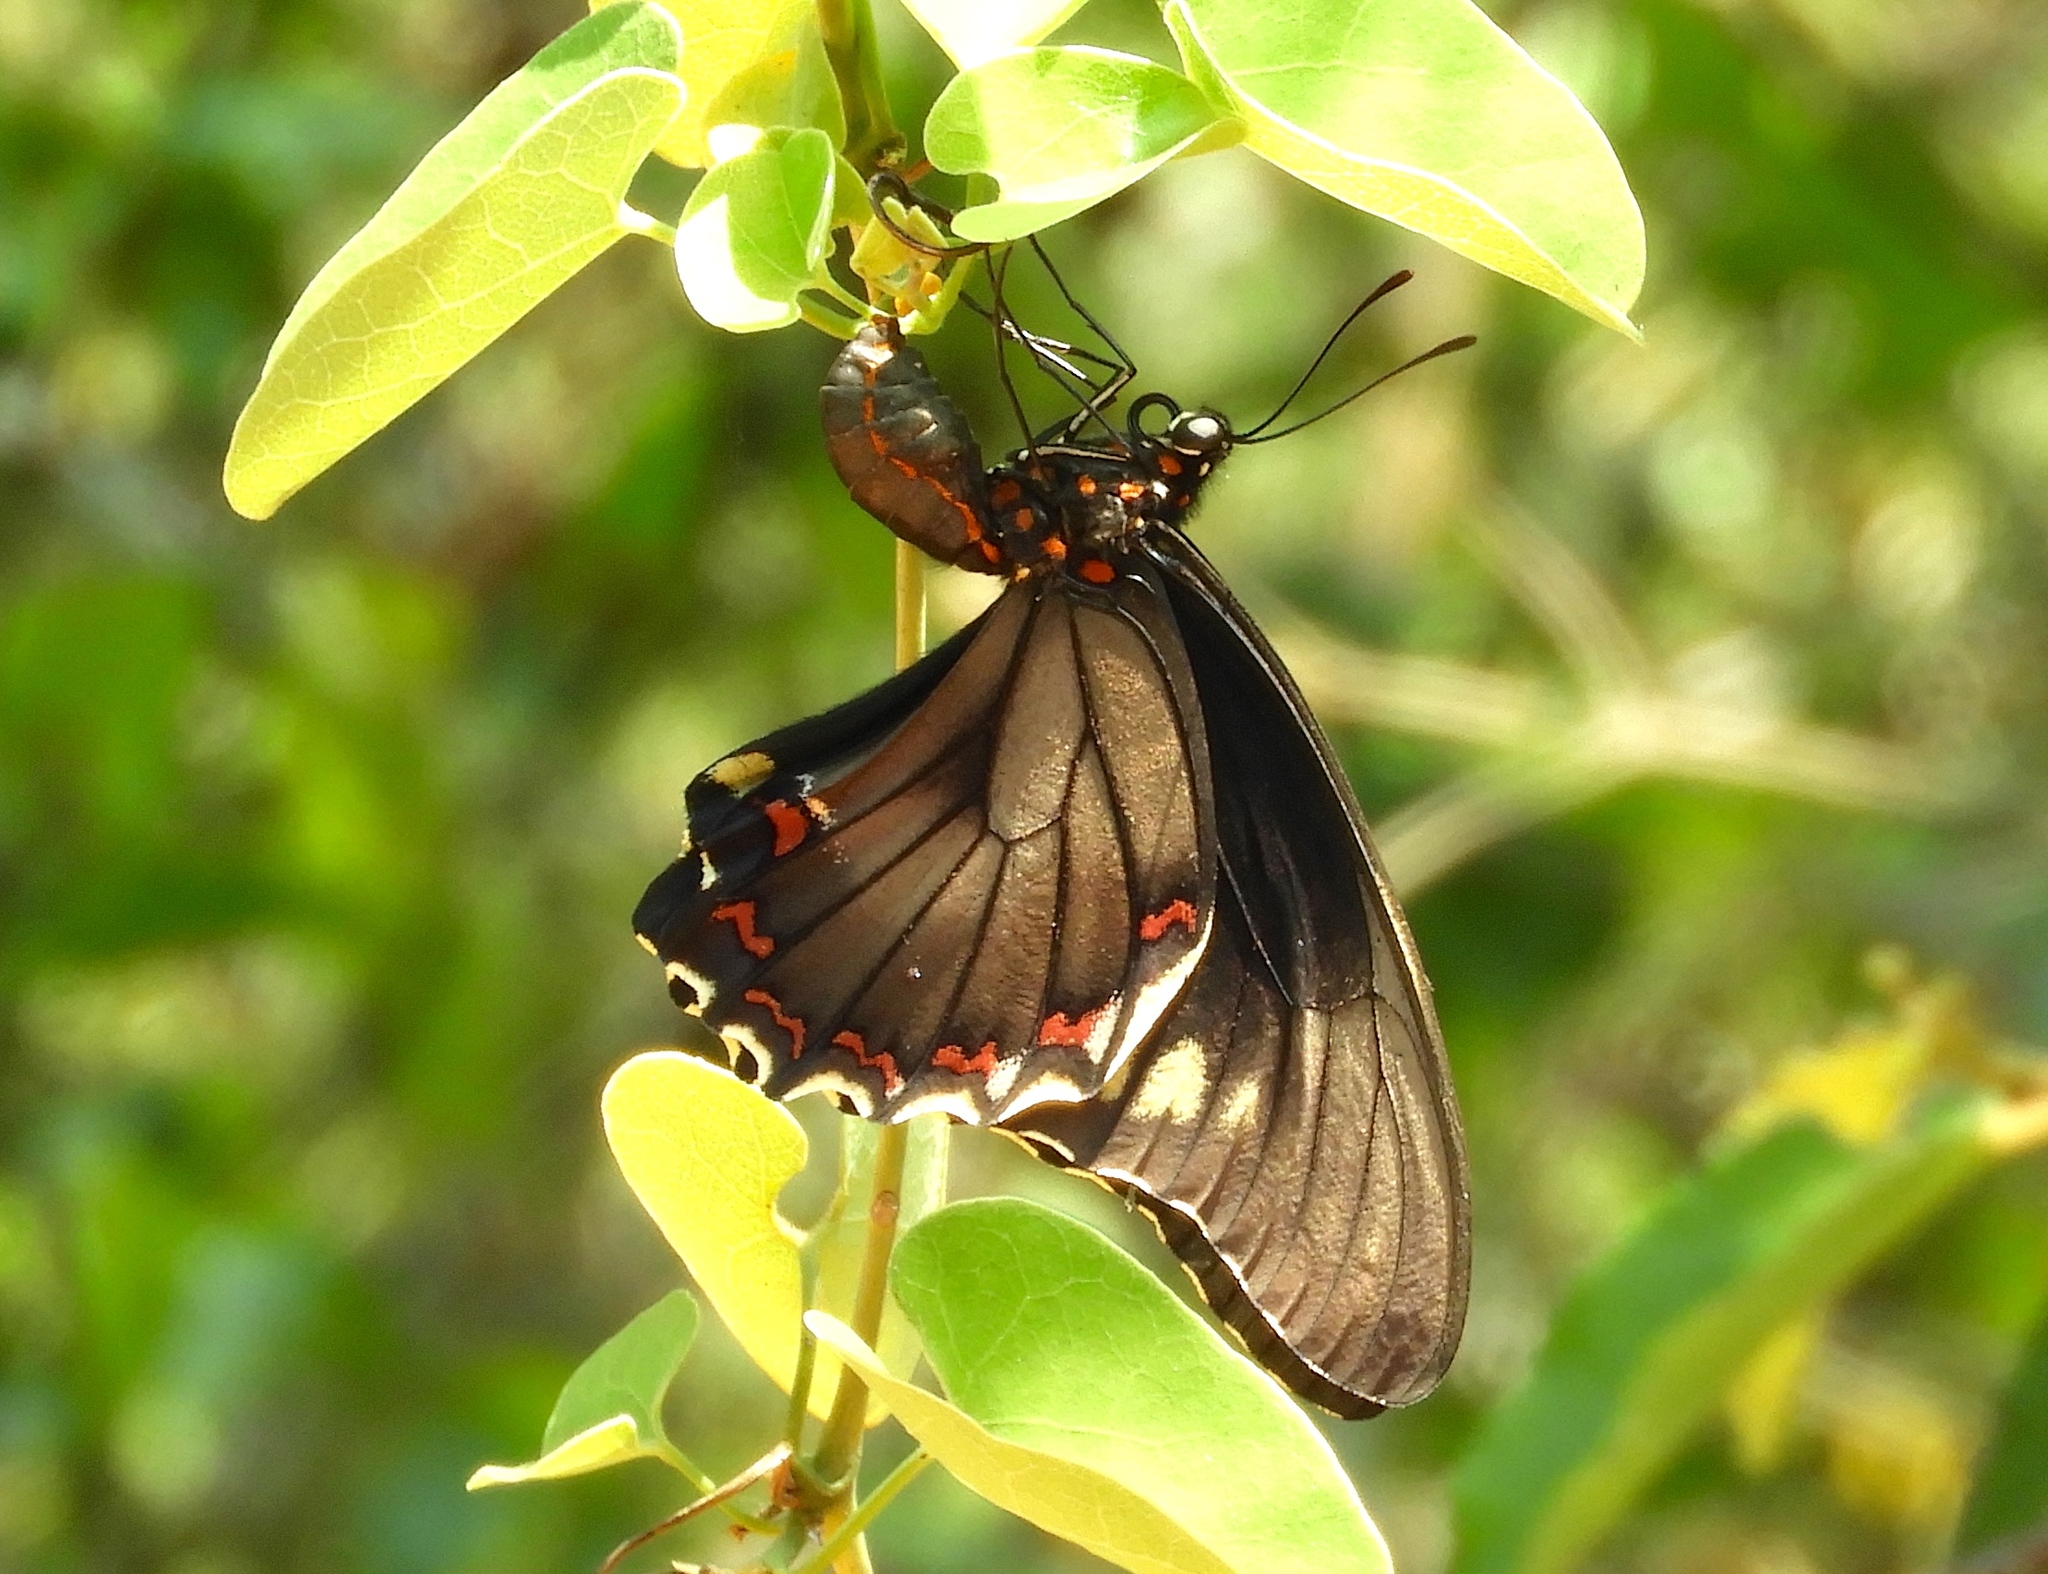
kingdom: Animalia
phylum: Arthropoda
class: Insecta
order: Lepidoptera
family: Papilionidae
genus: Battus
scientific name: Battus polydamas
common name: Polydamas swallowtail
